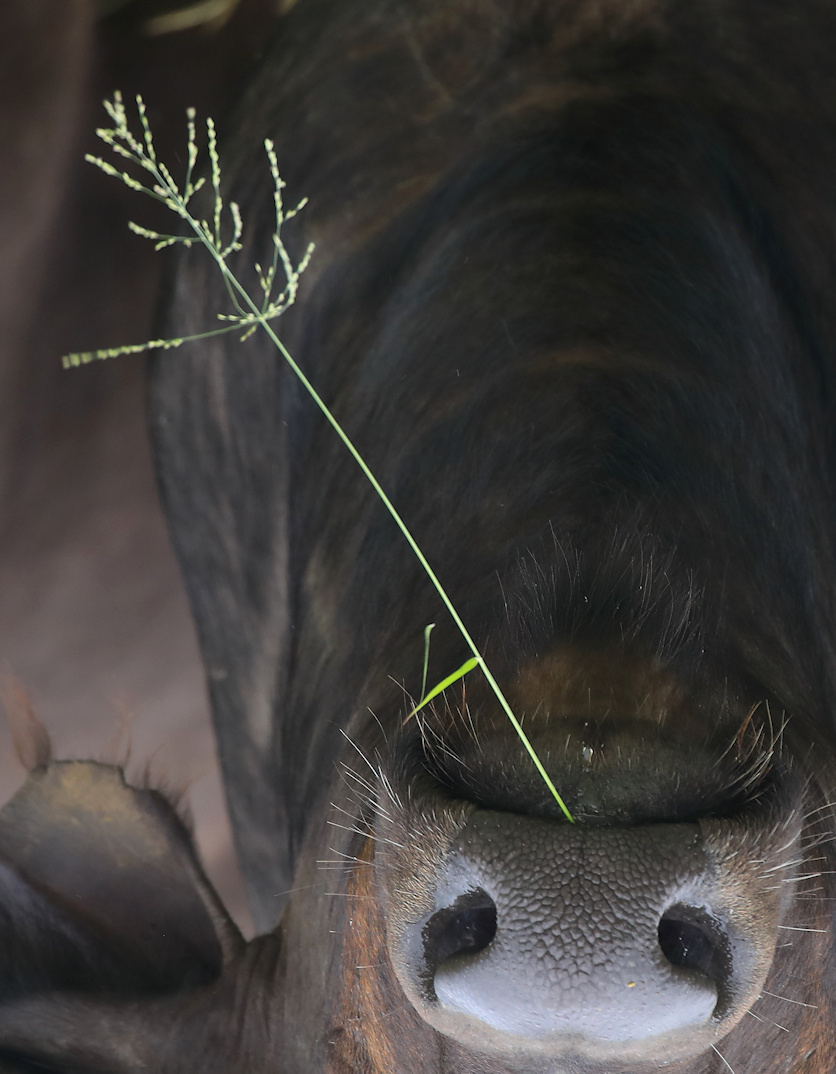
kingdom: Plantae
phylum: Tracheophyta
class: Liliopsida
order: Poales
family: Poaceae
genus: Megathyrsus
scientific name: Megathyrsus maximus
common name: Guineagrass
